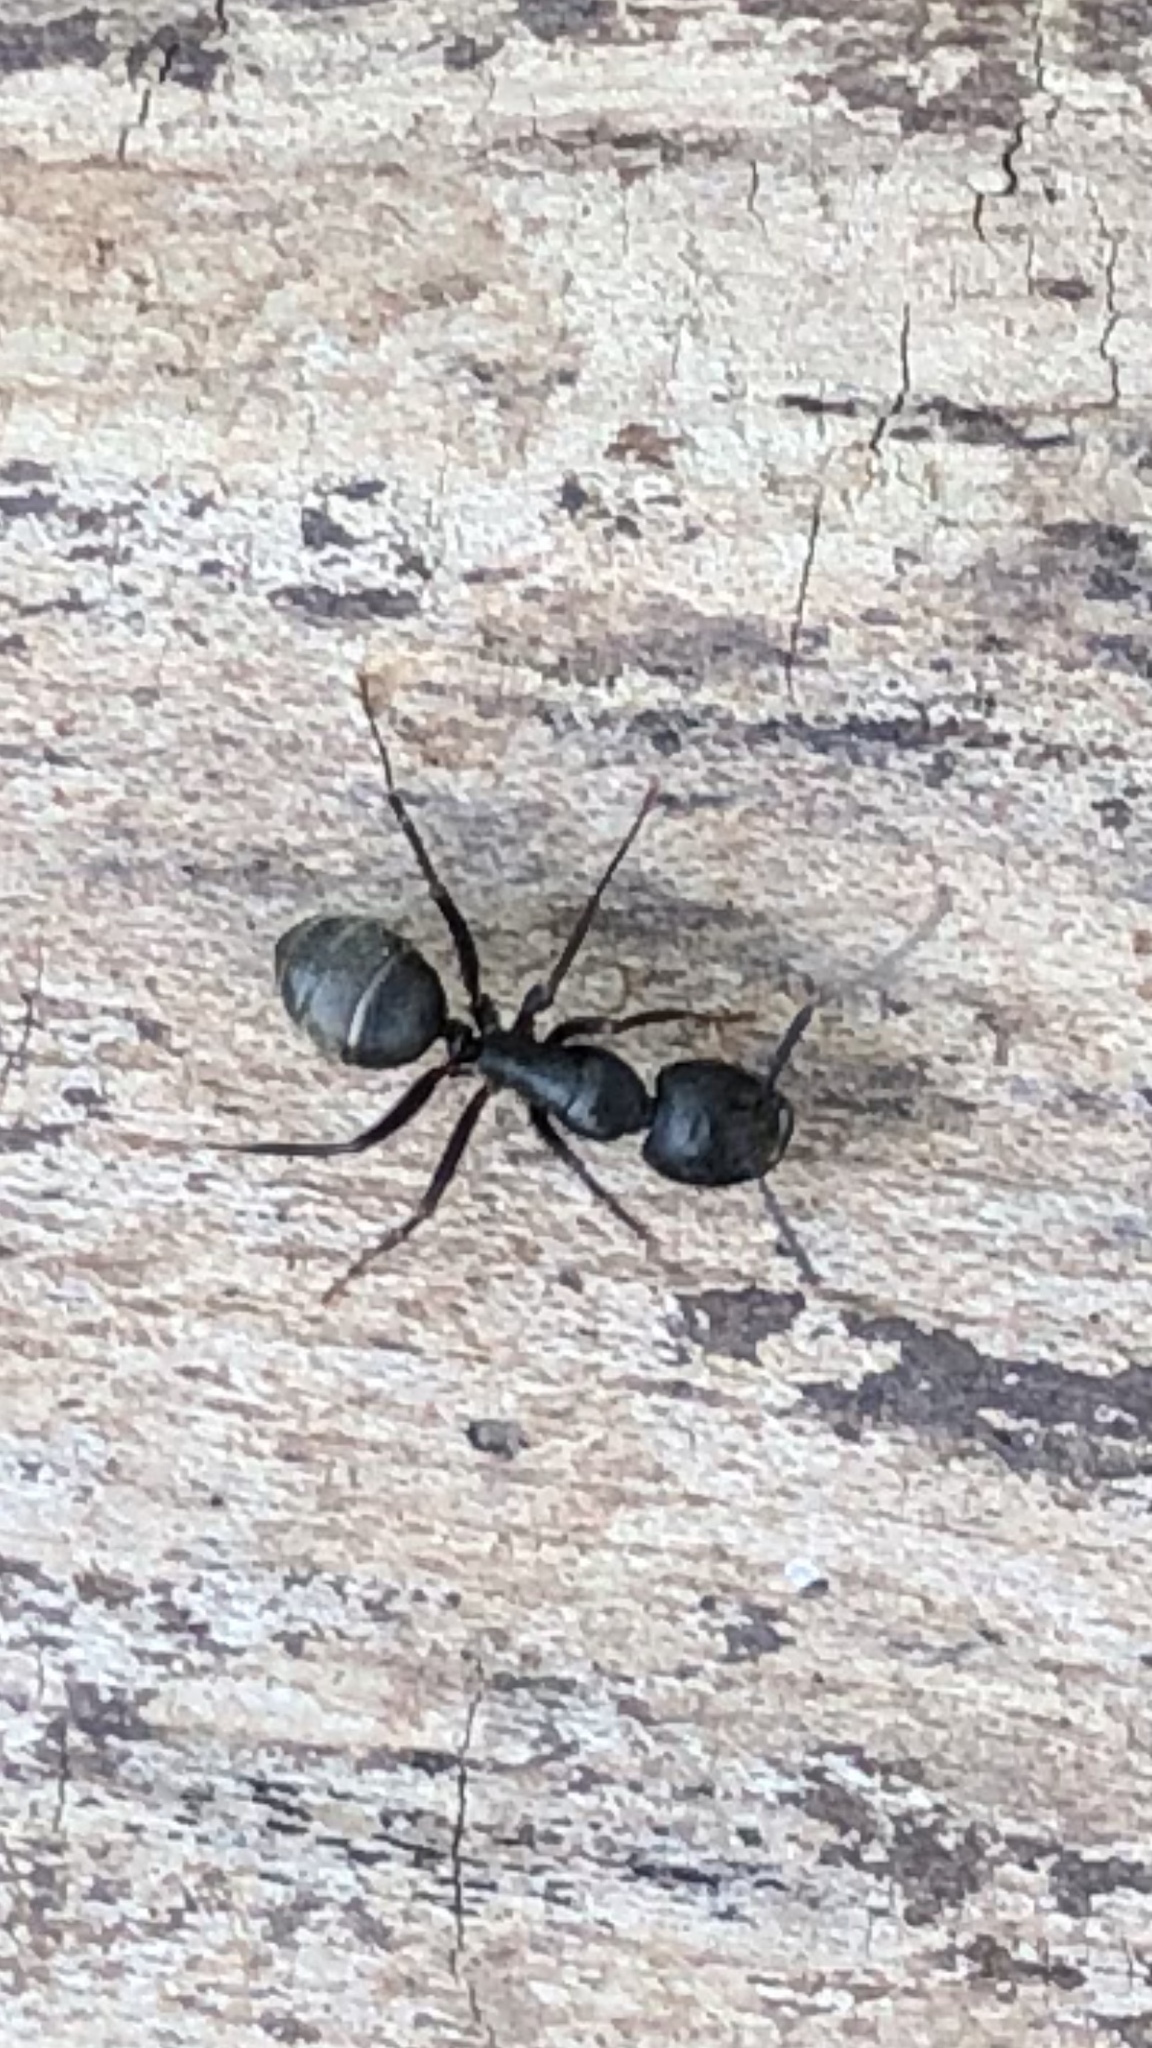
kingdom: Animalia
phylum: Arthropoda
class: Insecta
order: Hymenoptera
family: Formicidae
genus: Camponotus
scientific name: Camponotus pennsylvanicus
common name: Black carpenter ant
